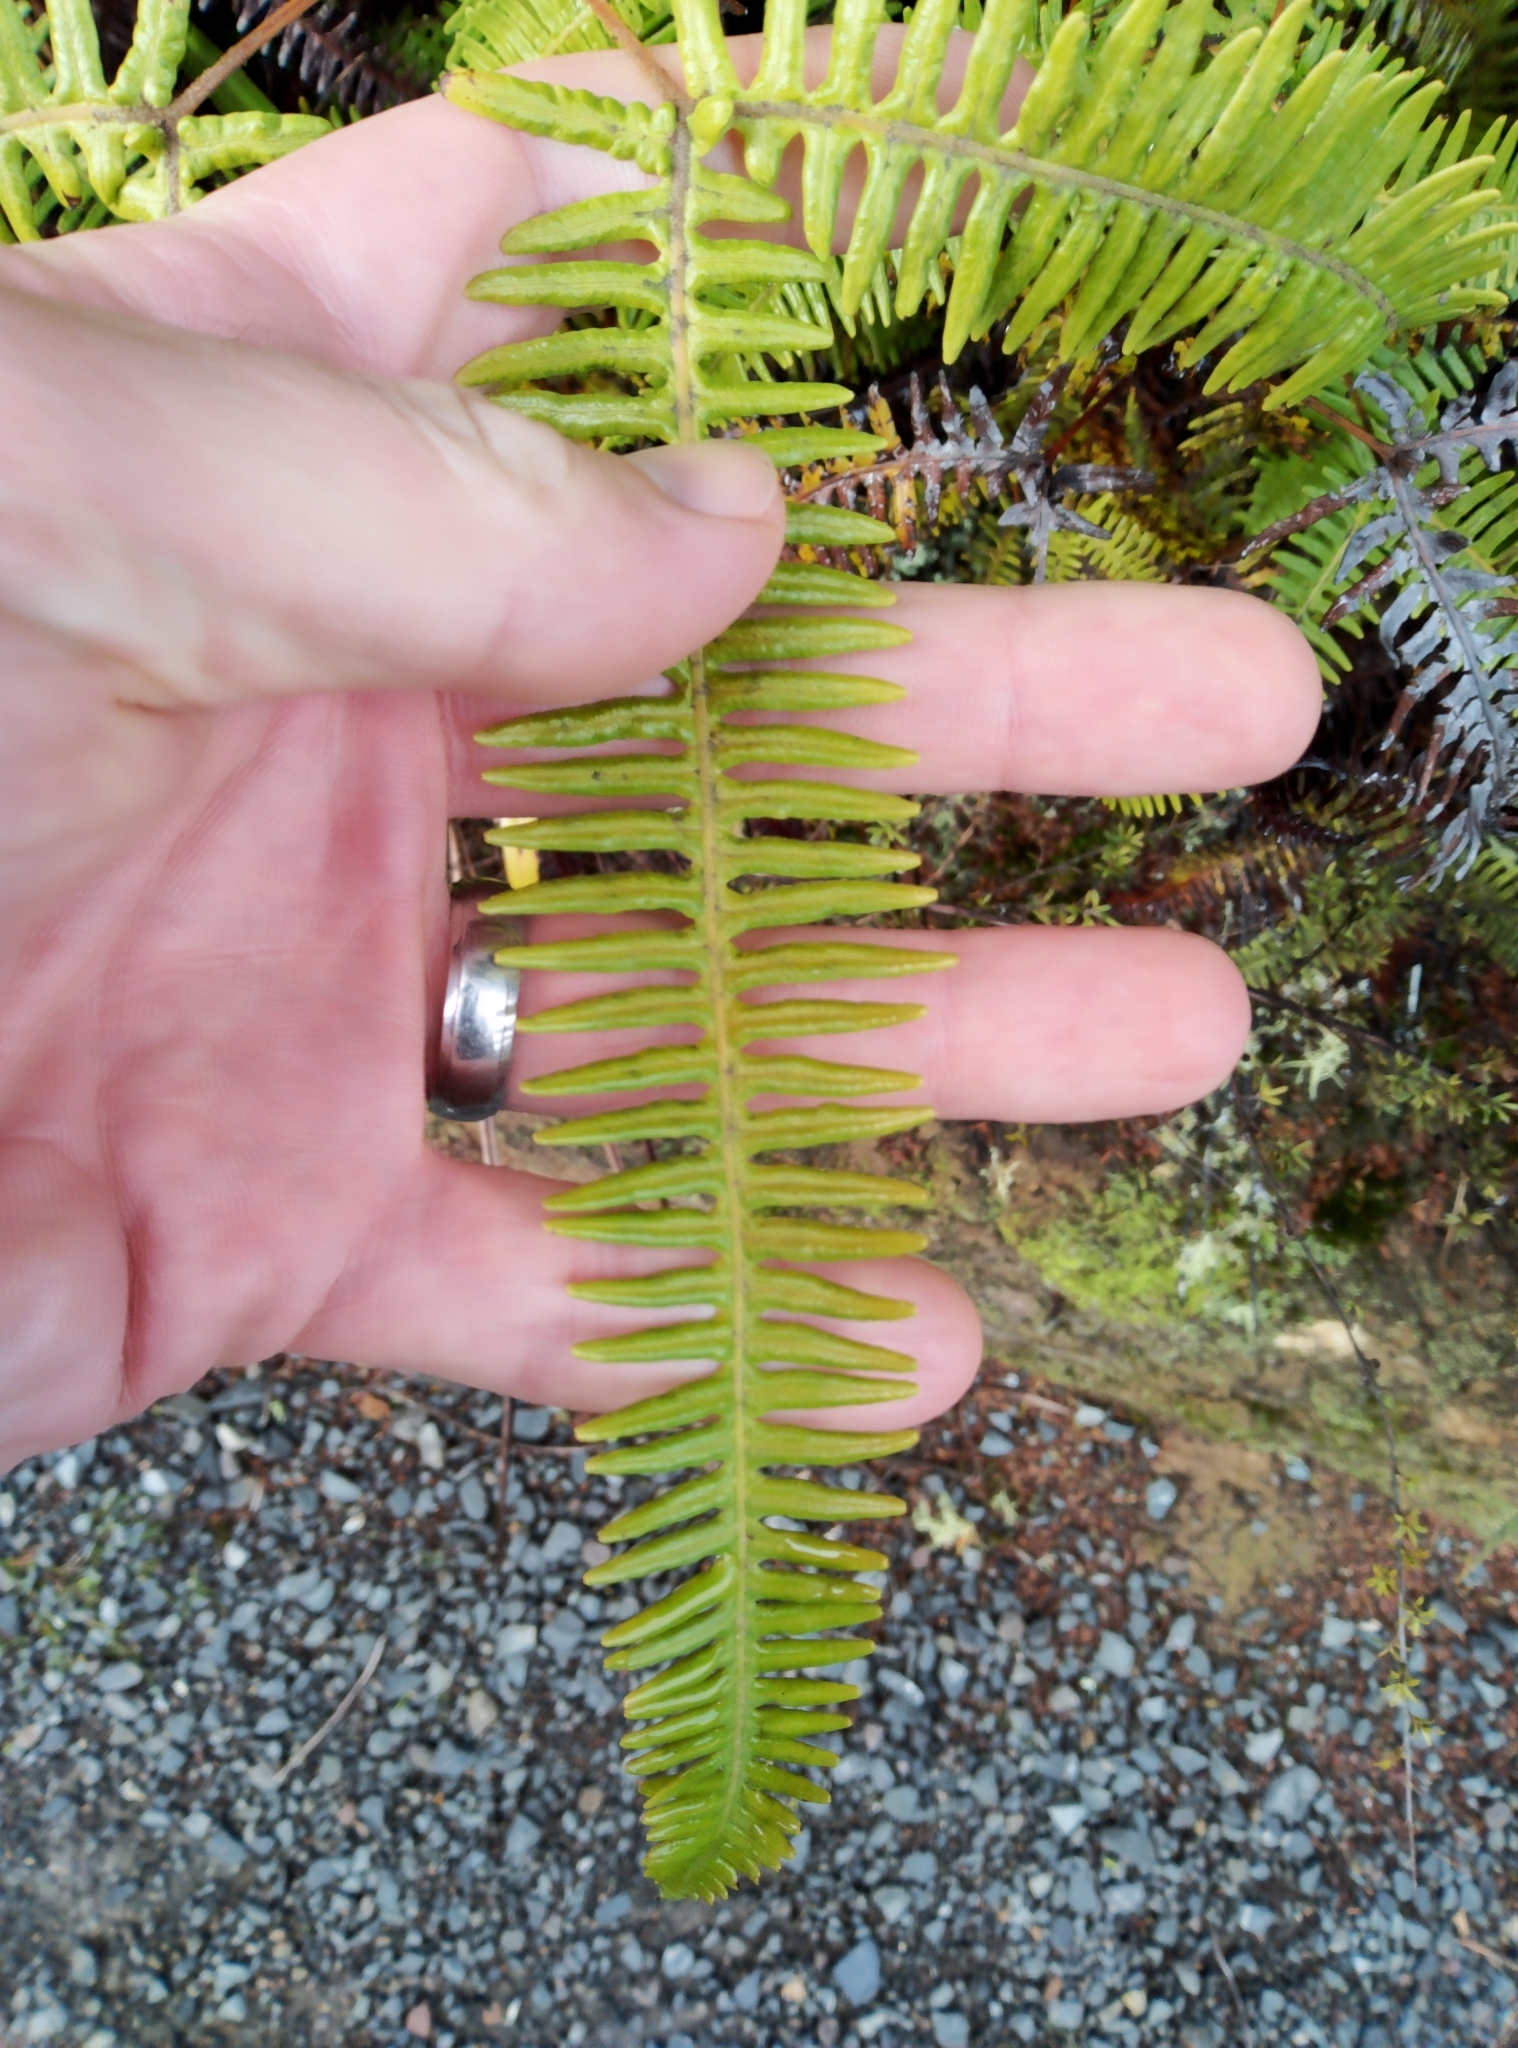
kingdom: Plantae
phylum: Tracheophyta
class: Polypodiopsida
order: Gleicheniales
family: Gleicheniaceae
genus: Dicranopteris
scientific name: Dicranopteris linearis
